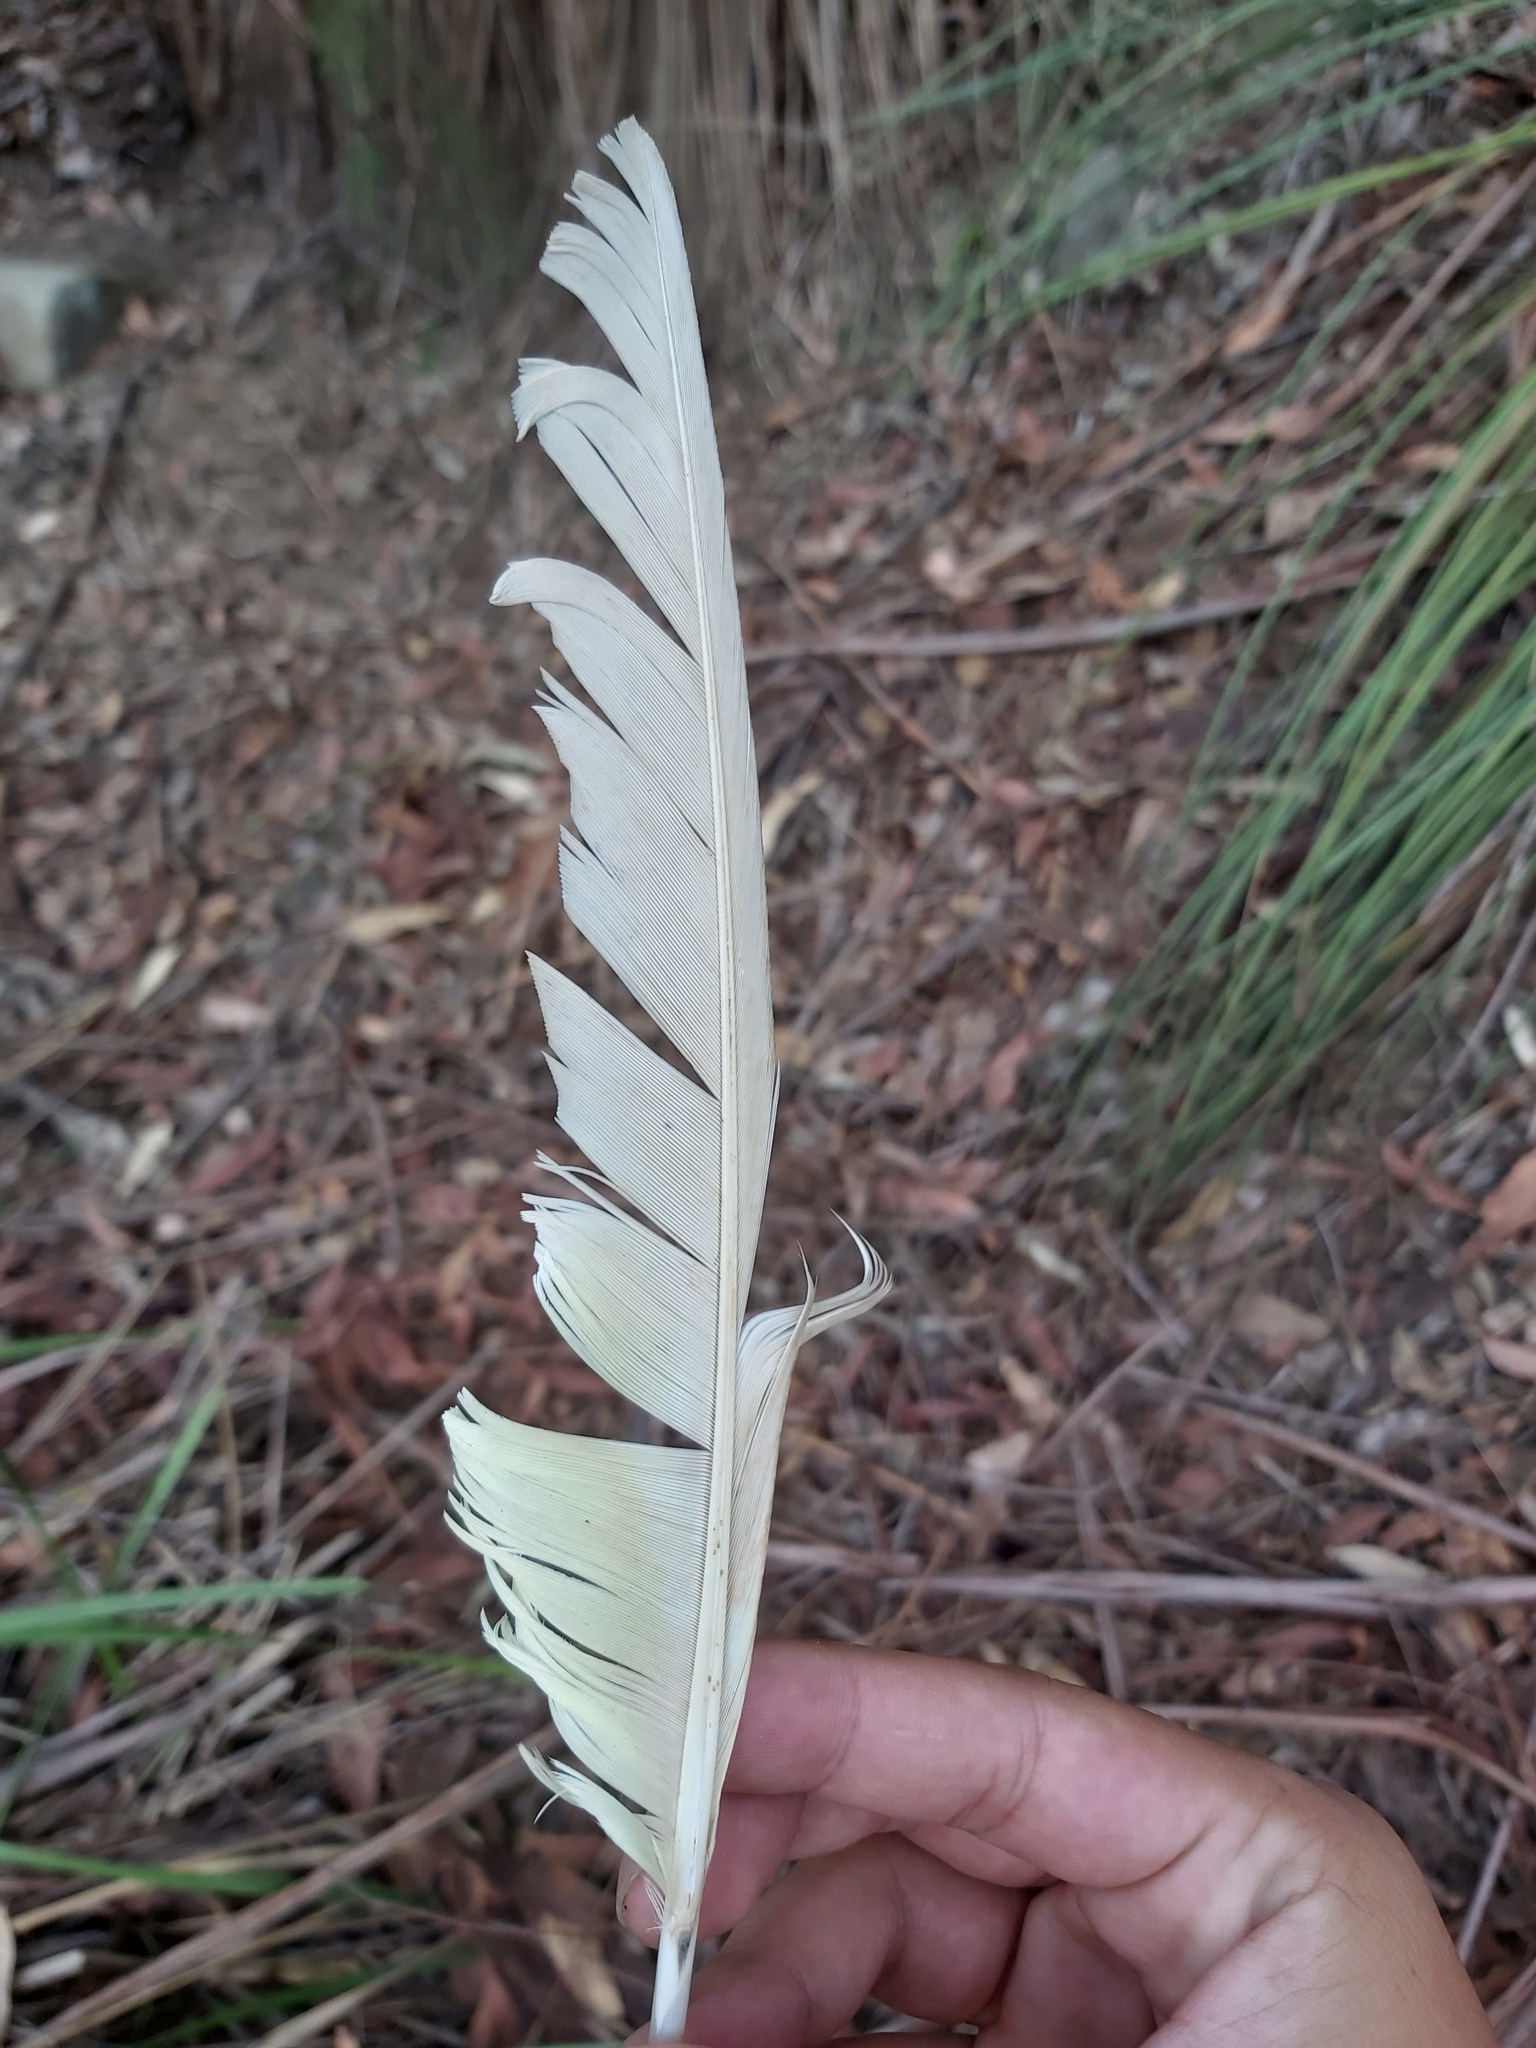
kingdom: Animalia
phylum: Chordata
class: Aves
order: Psittaciformes
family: Psittacidae
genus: Cacatua
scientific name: Cacatua galerita
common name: Sulphur-crested cockatoo
